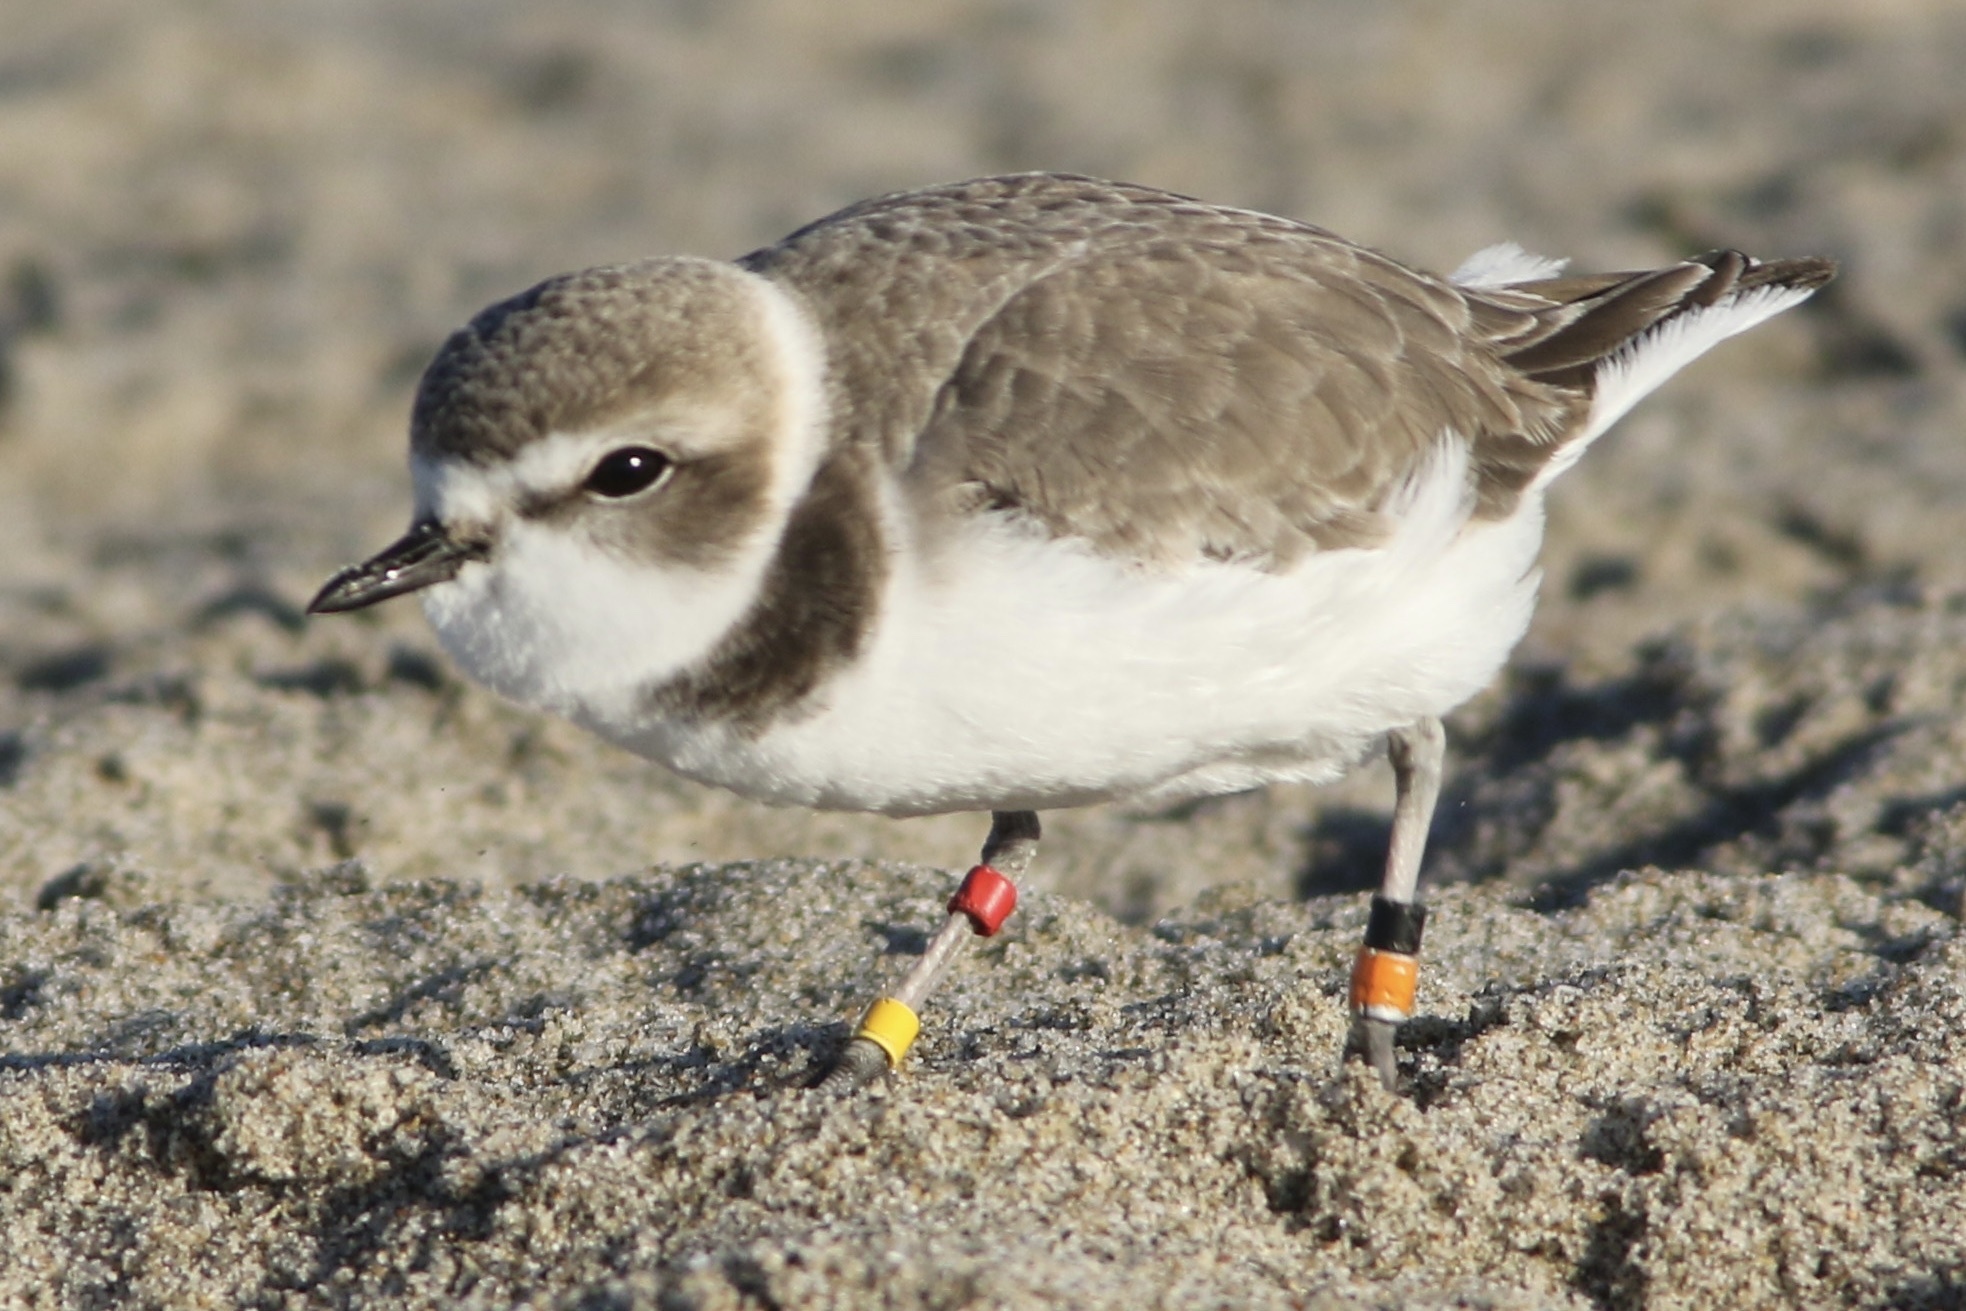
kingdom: Animalia
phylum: Chordata
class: Aves
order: Charadriiformes
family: Charadriidae
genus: Anarhynchus
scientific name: Anarhynchus
